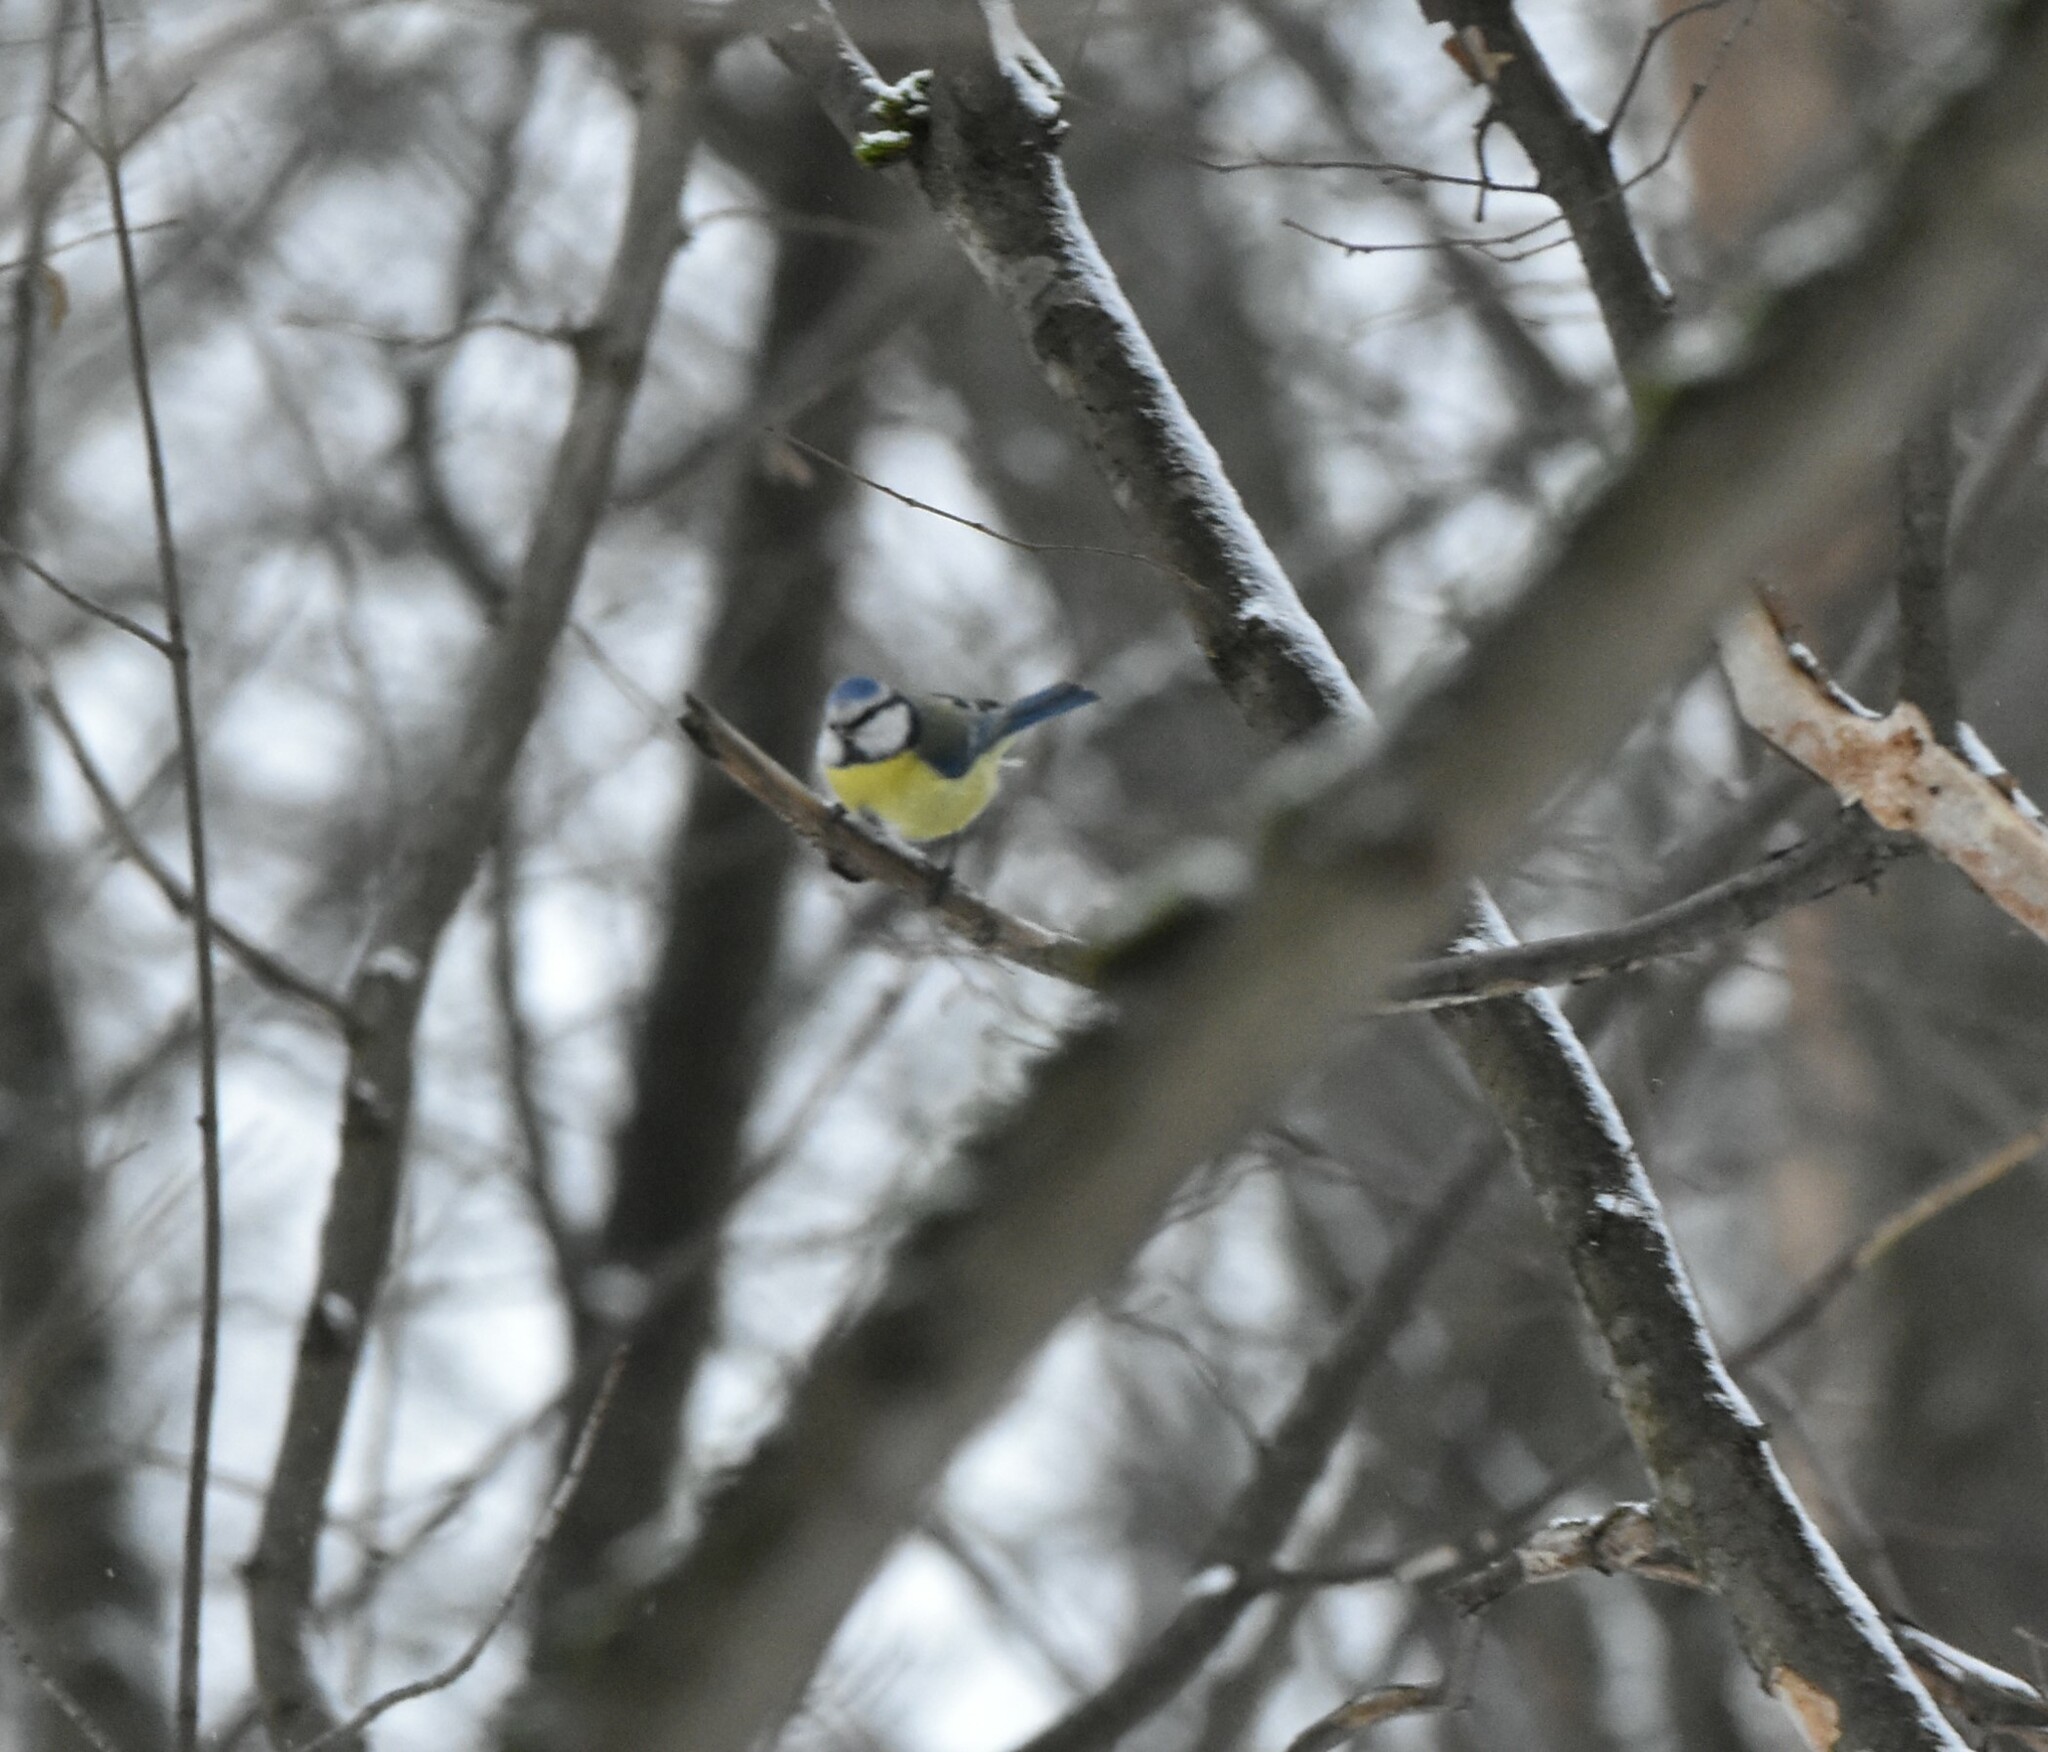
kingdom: Animalia
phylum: Chordata
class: Aves
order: Passeriformes
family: Paridae
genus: Cyanistes
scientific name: Cyanistes caeruleus
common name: Eurasian blue tit
